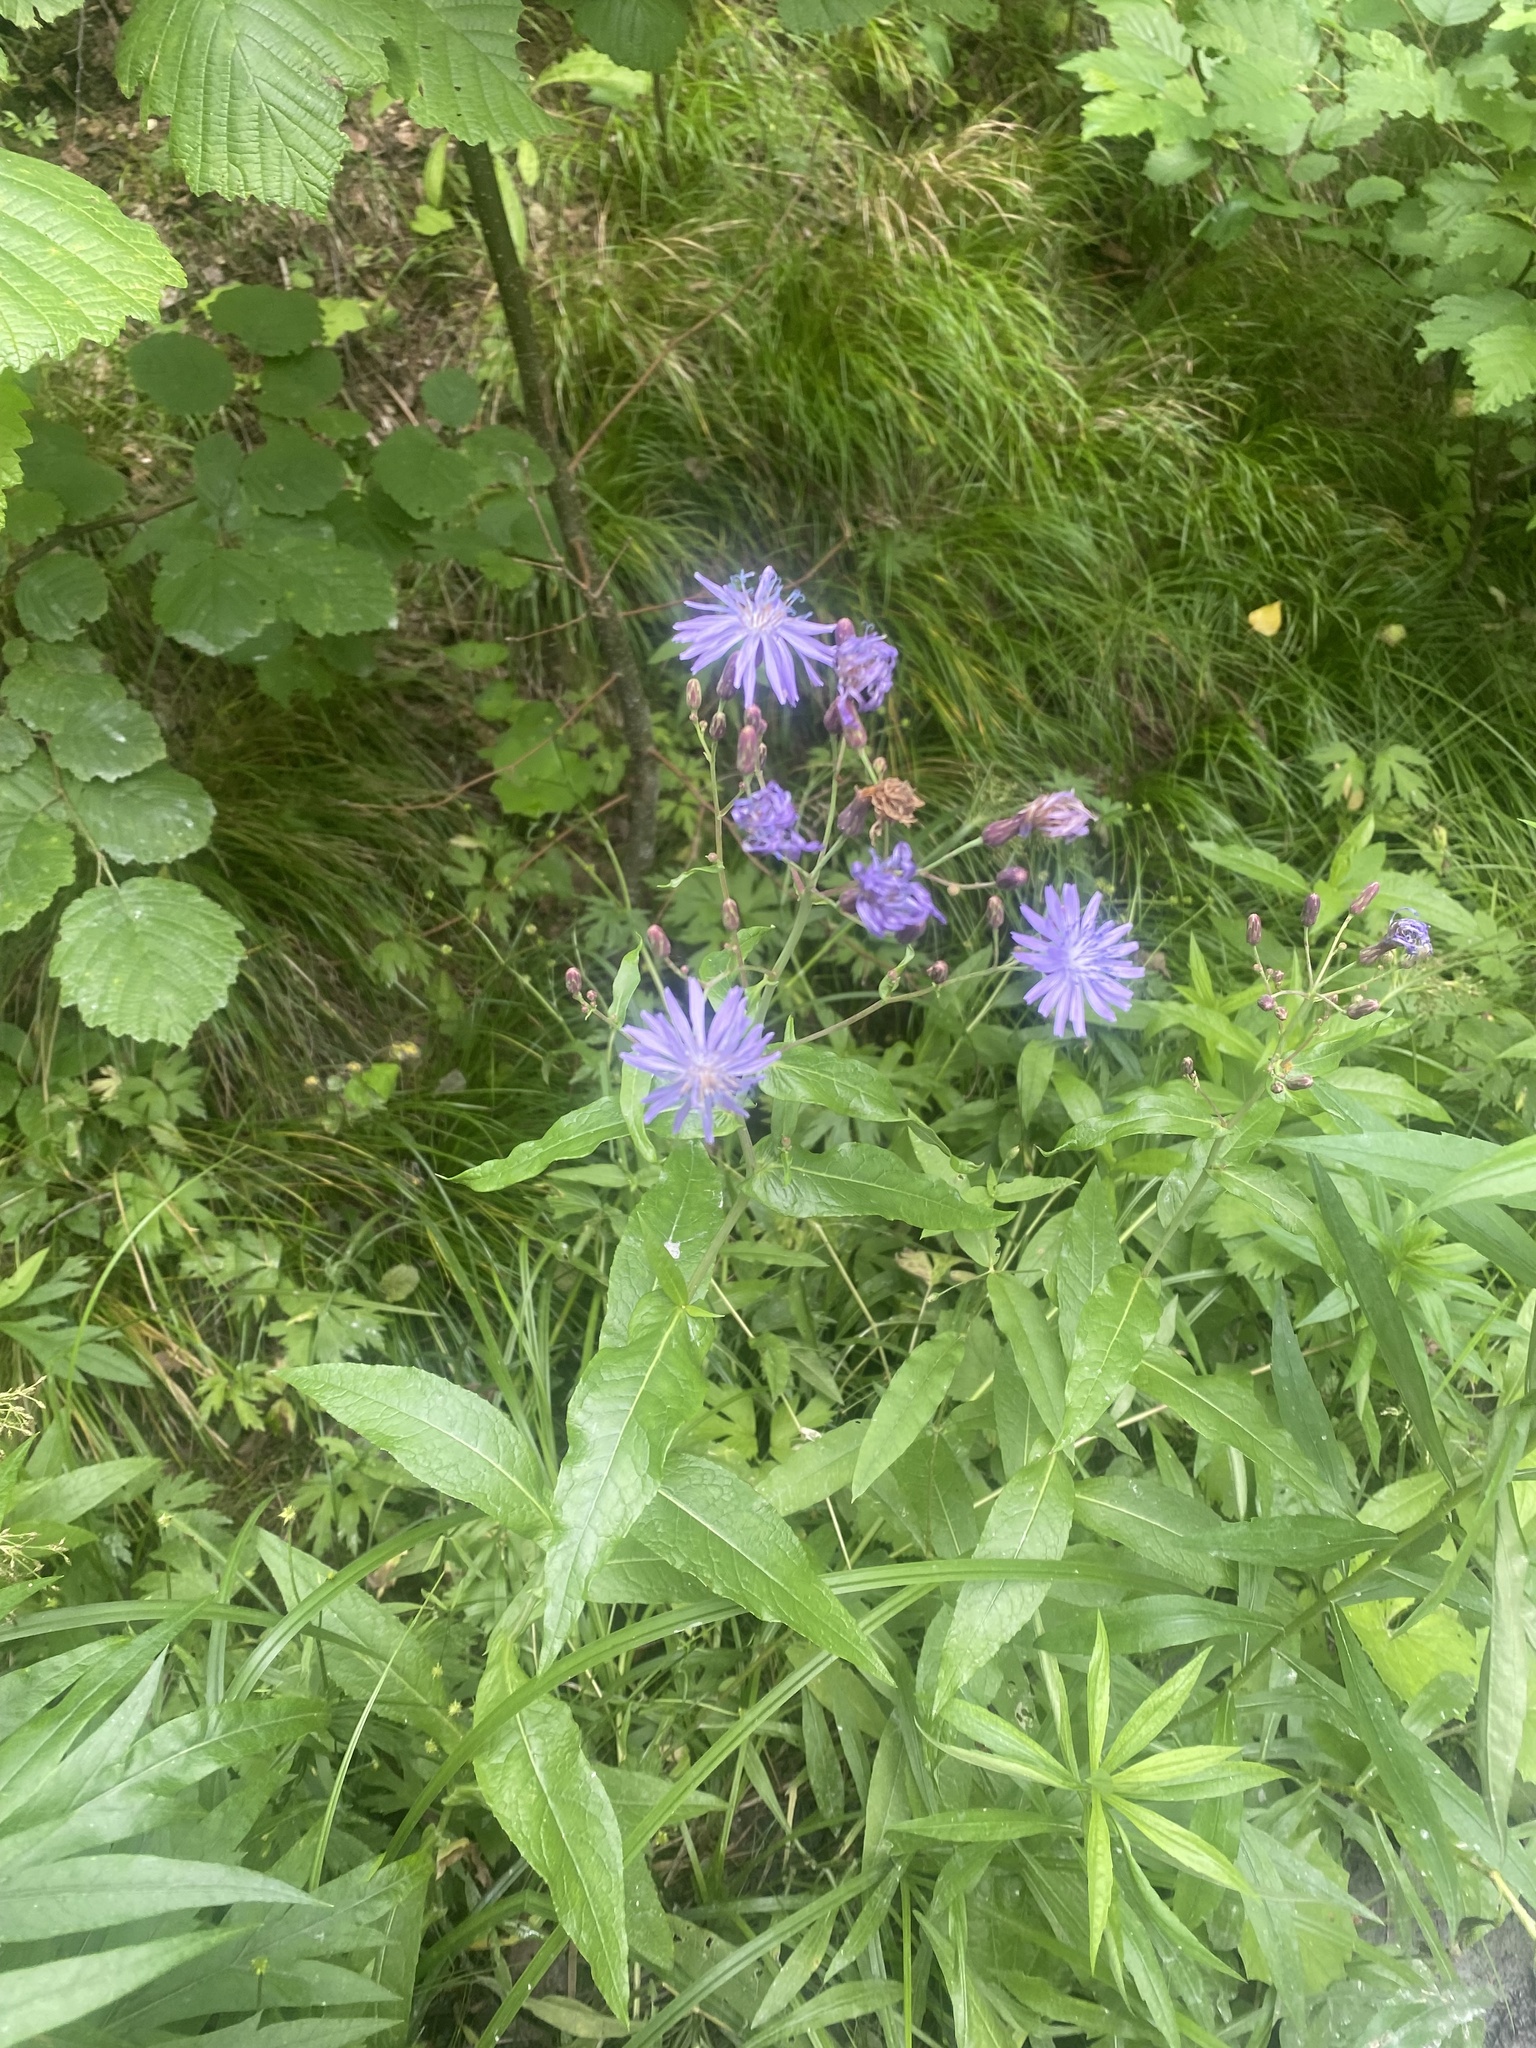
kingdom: Plantae
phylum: Tracheophyta
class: Magnoliopsida
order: Asterales
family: Asteraceae
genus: Lactuca
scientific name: Lactuca sibirica
